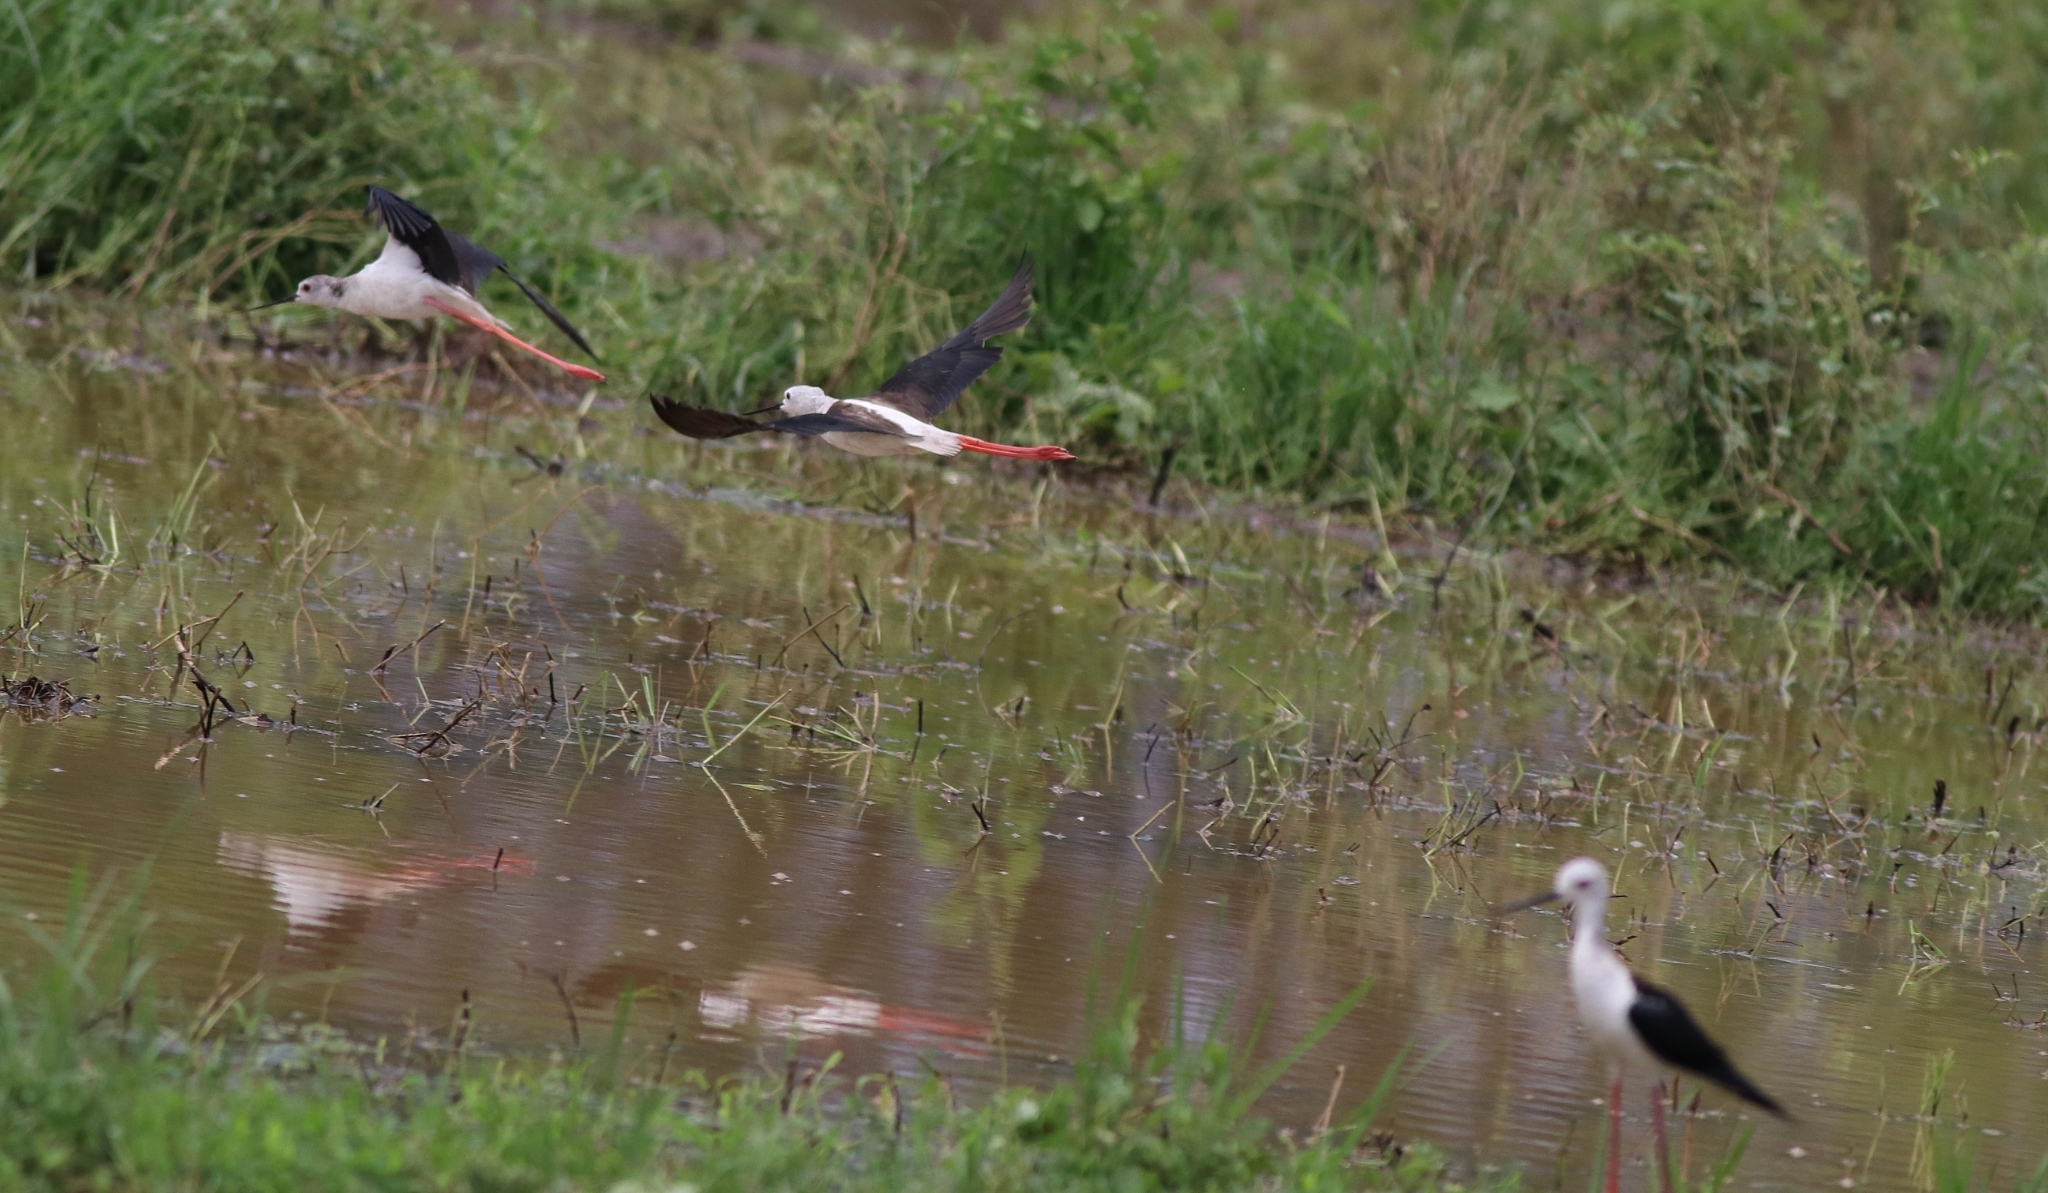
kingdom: Animalia
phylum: Chordata
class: Aves
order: Charadriiformes
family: Recurvirostridae
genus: Himantopus
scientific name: Himantopus himantopus
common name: Black-winged stilt
